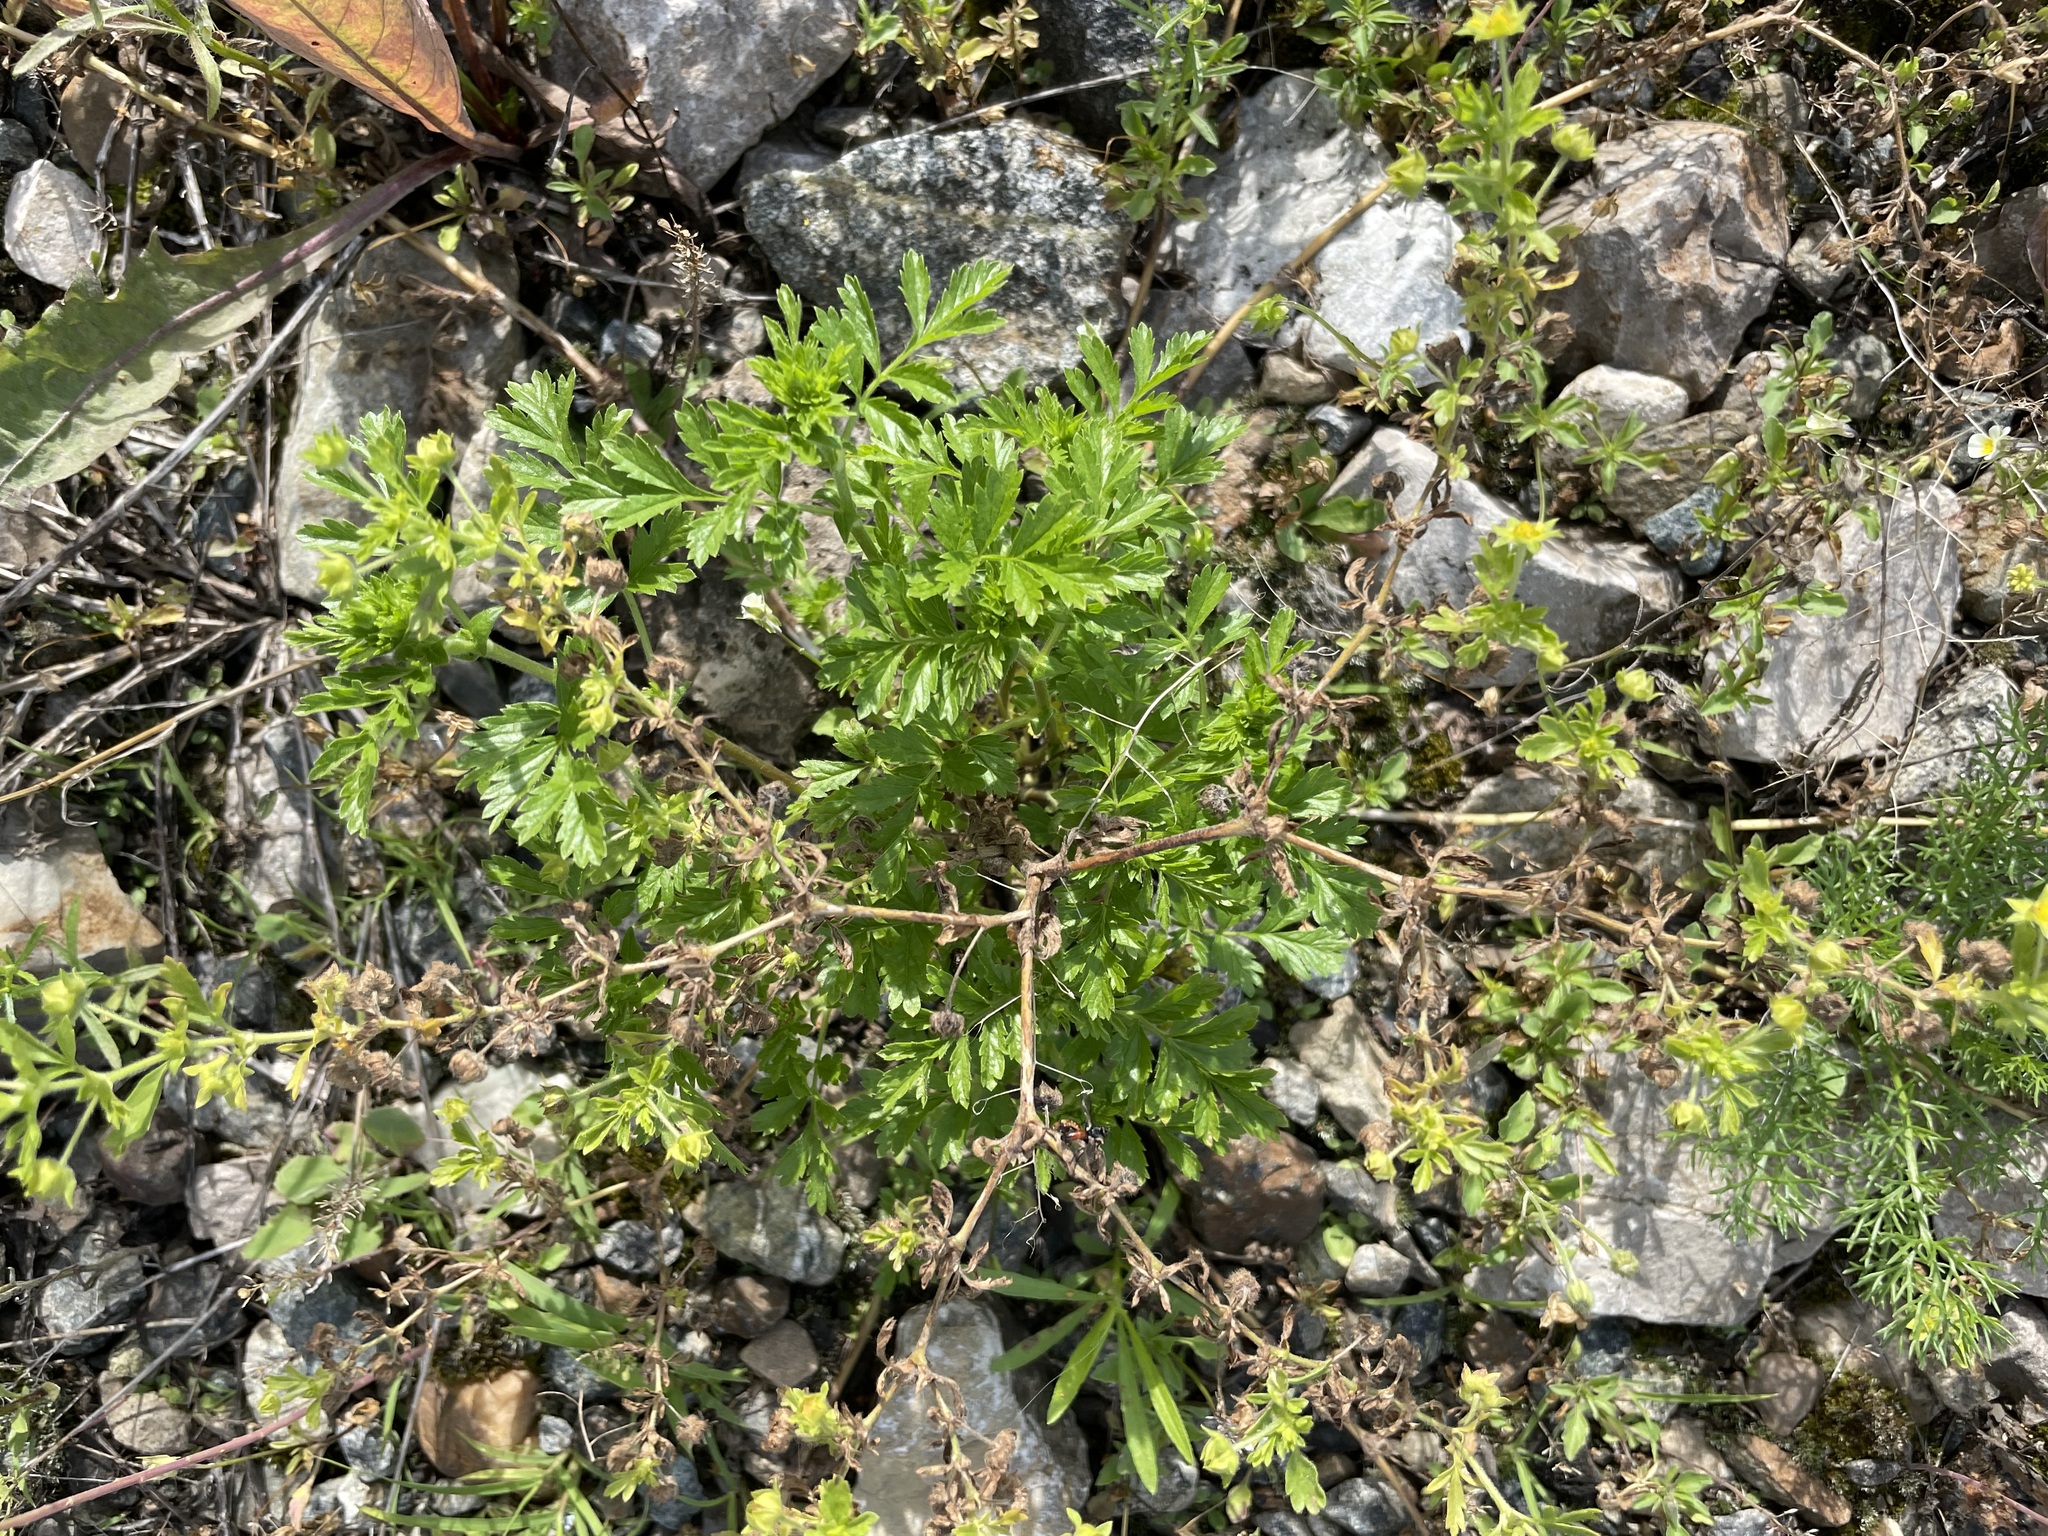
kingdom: Plantae
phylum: Tracheophyta
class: Magnoliopsida
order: Rosales
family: Rosaceae
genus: Potentilla
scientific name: Potentilla supina
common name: Prostrate cinquefoil
